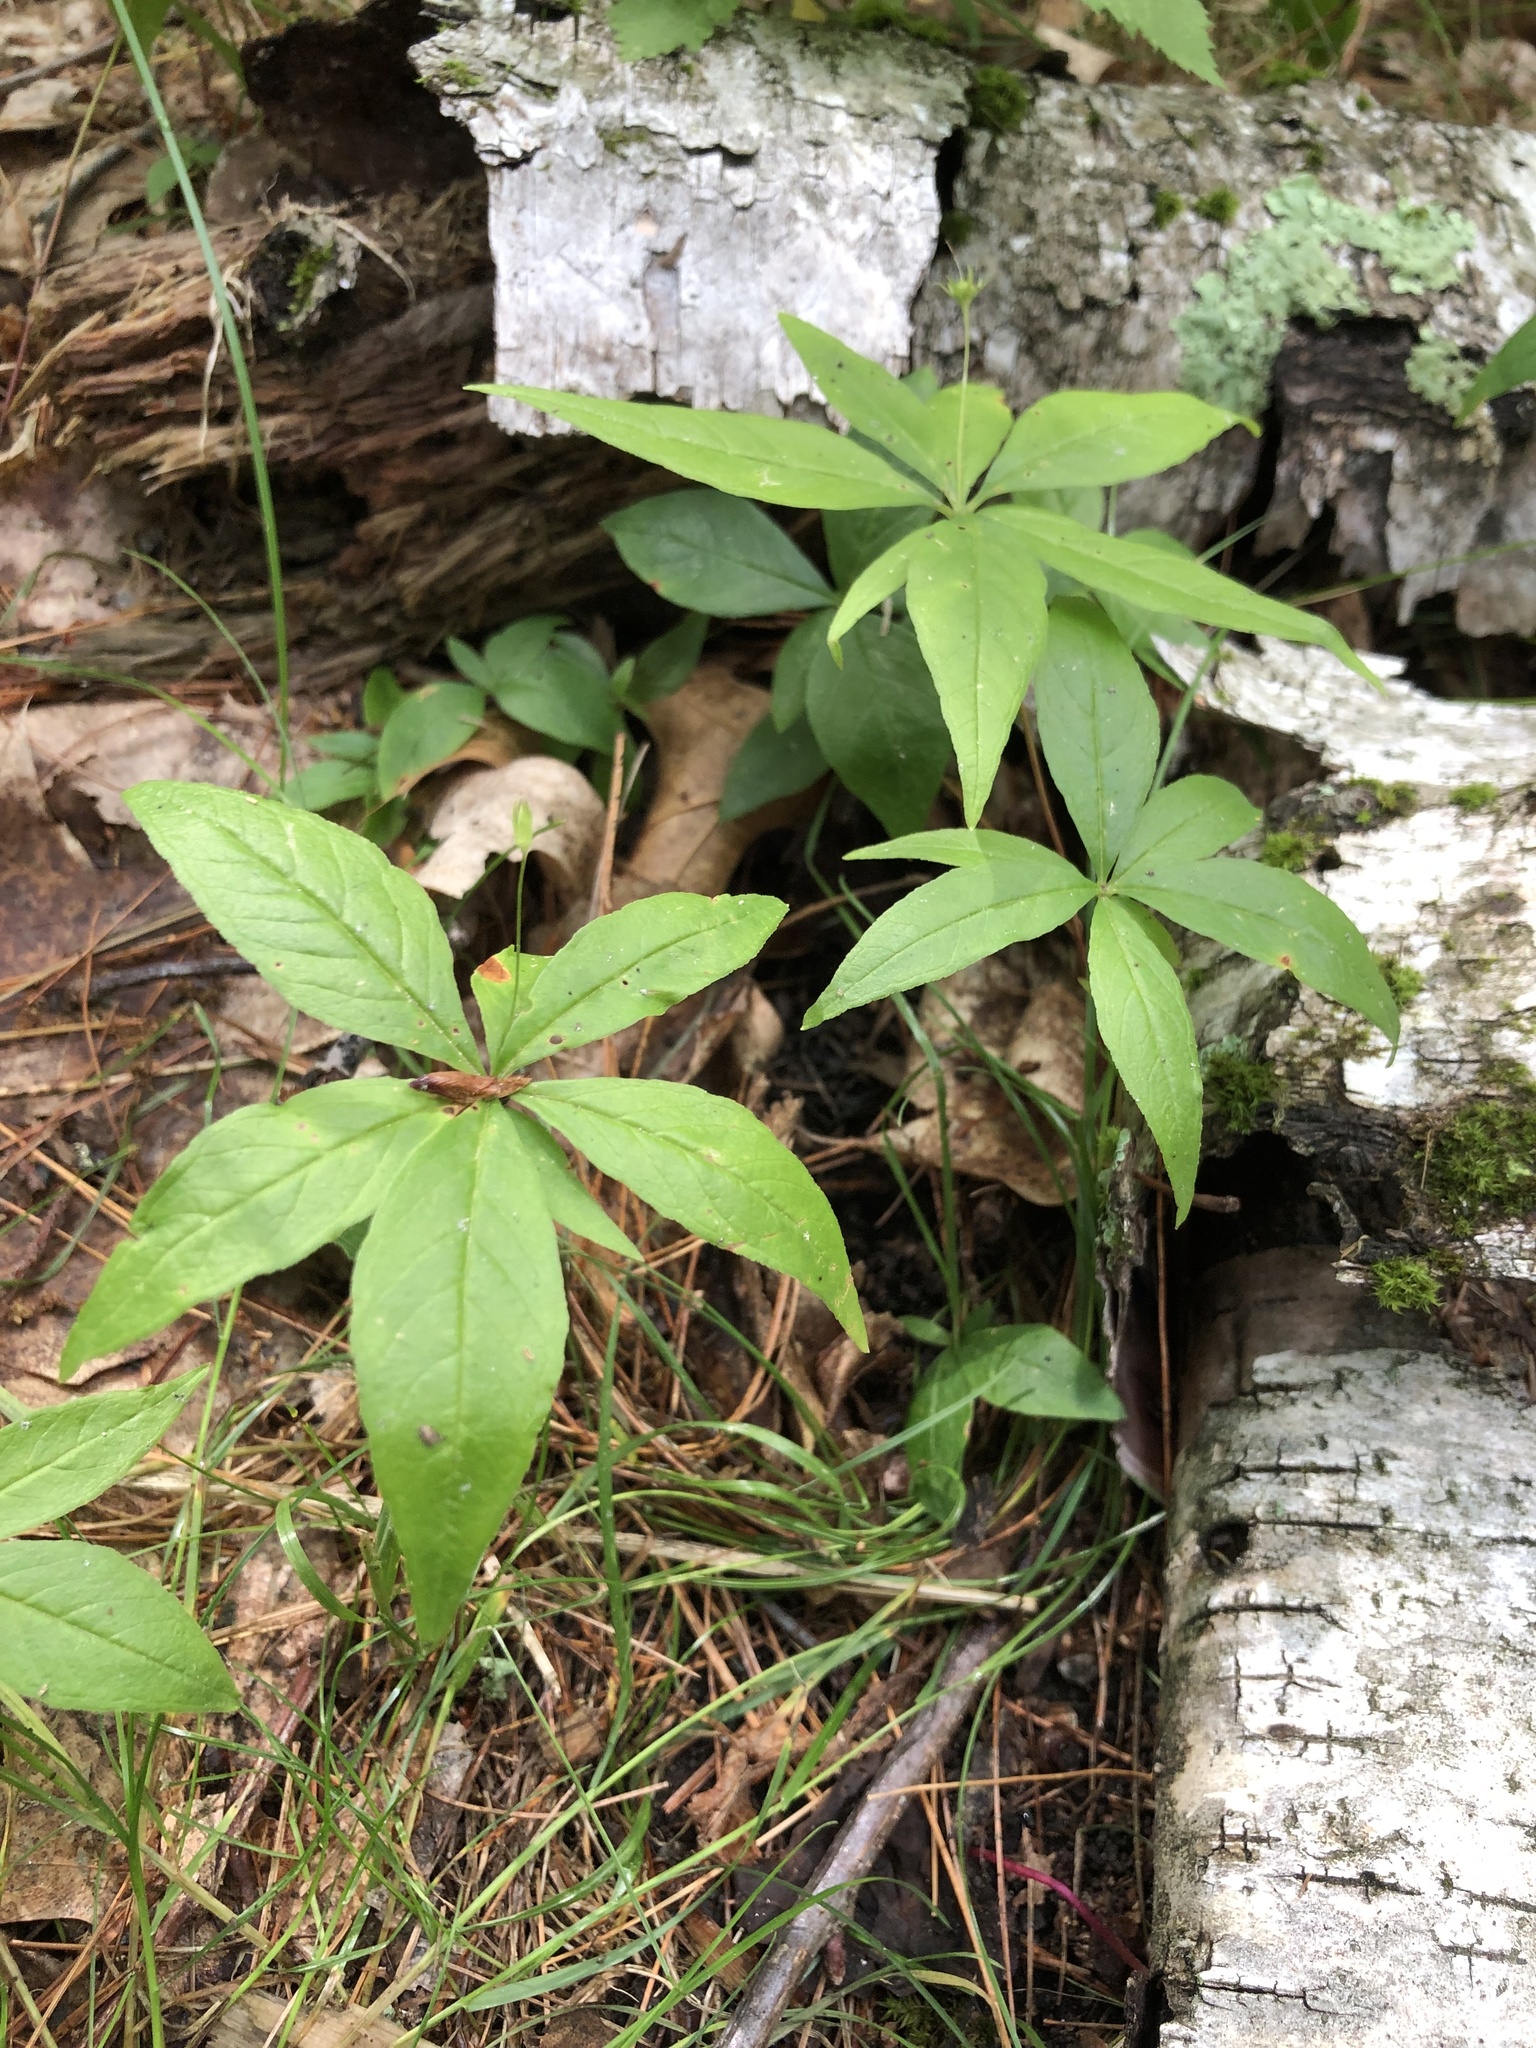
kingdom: Plantae
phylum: Tracheophyta
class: Magnoliopsida
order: Ericales
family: Primulaceae
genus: Lysimachia
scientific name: Lysimachia borealis
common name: American starflower
